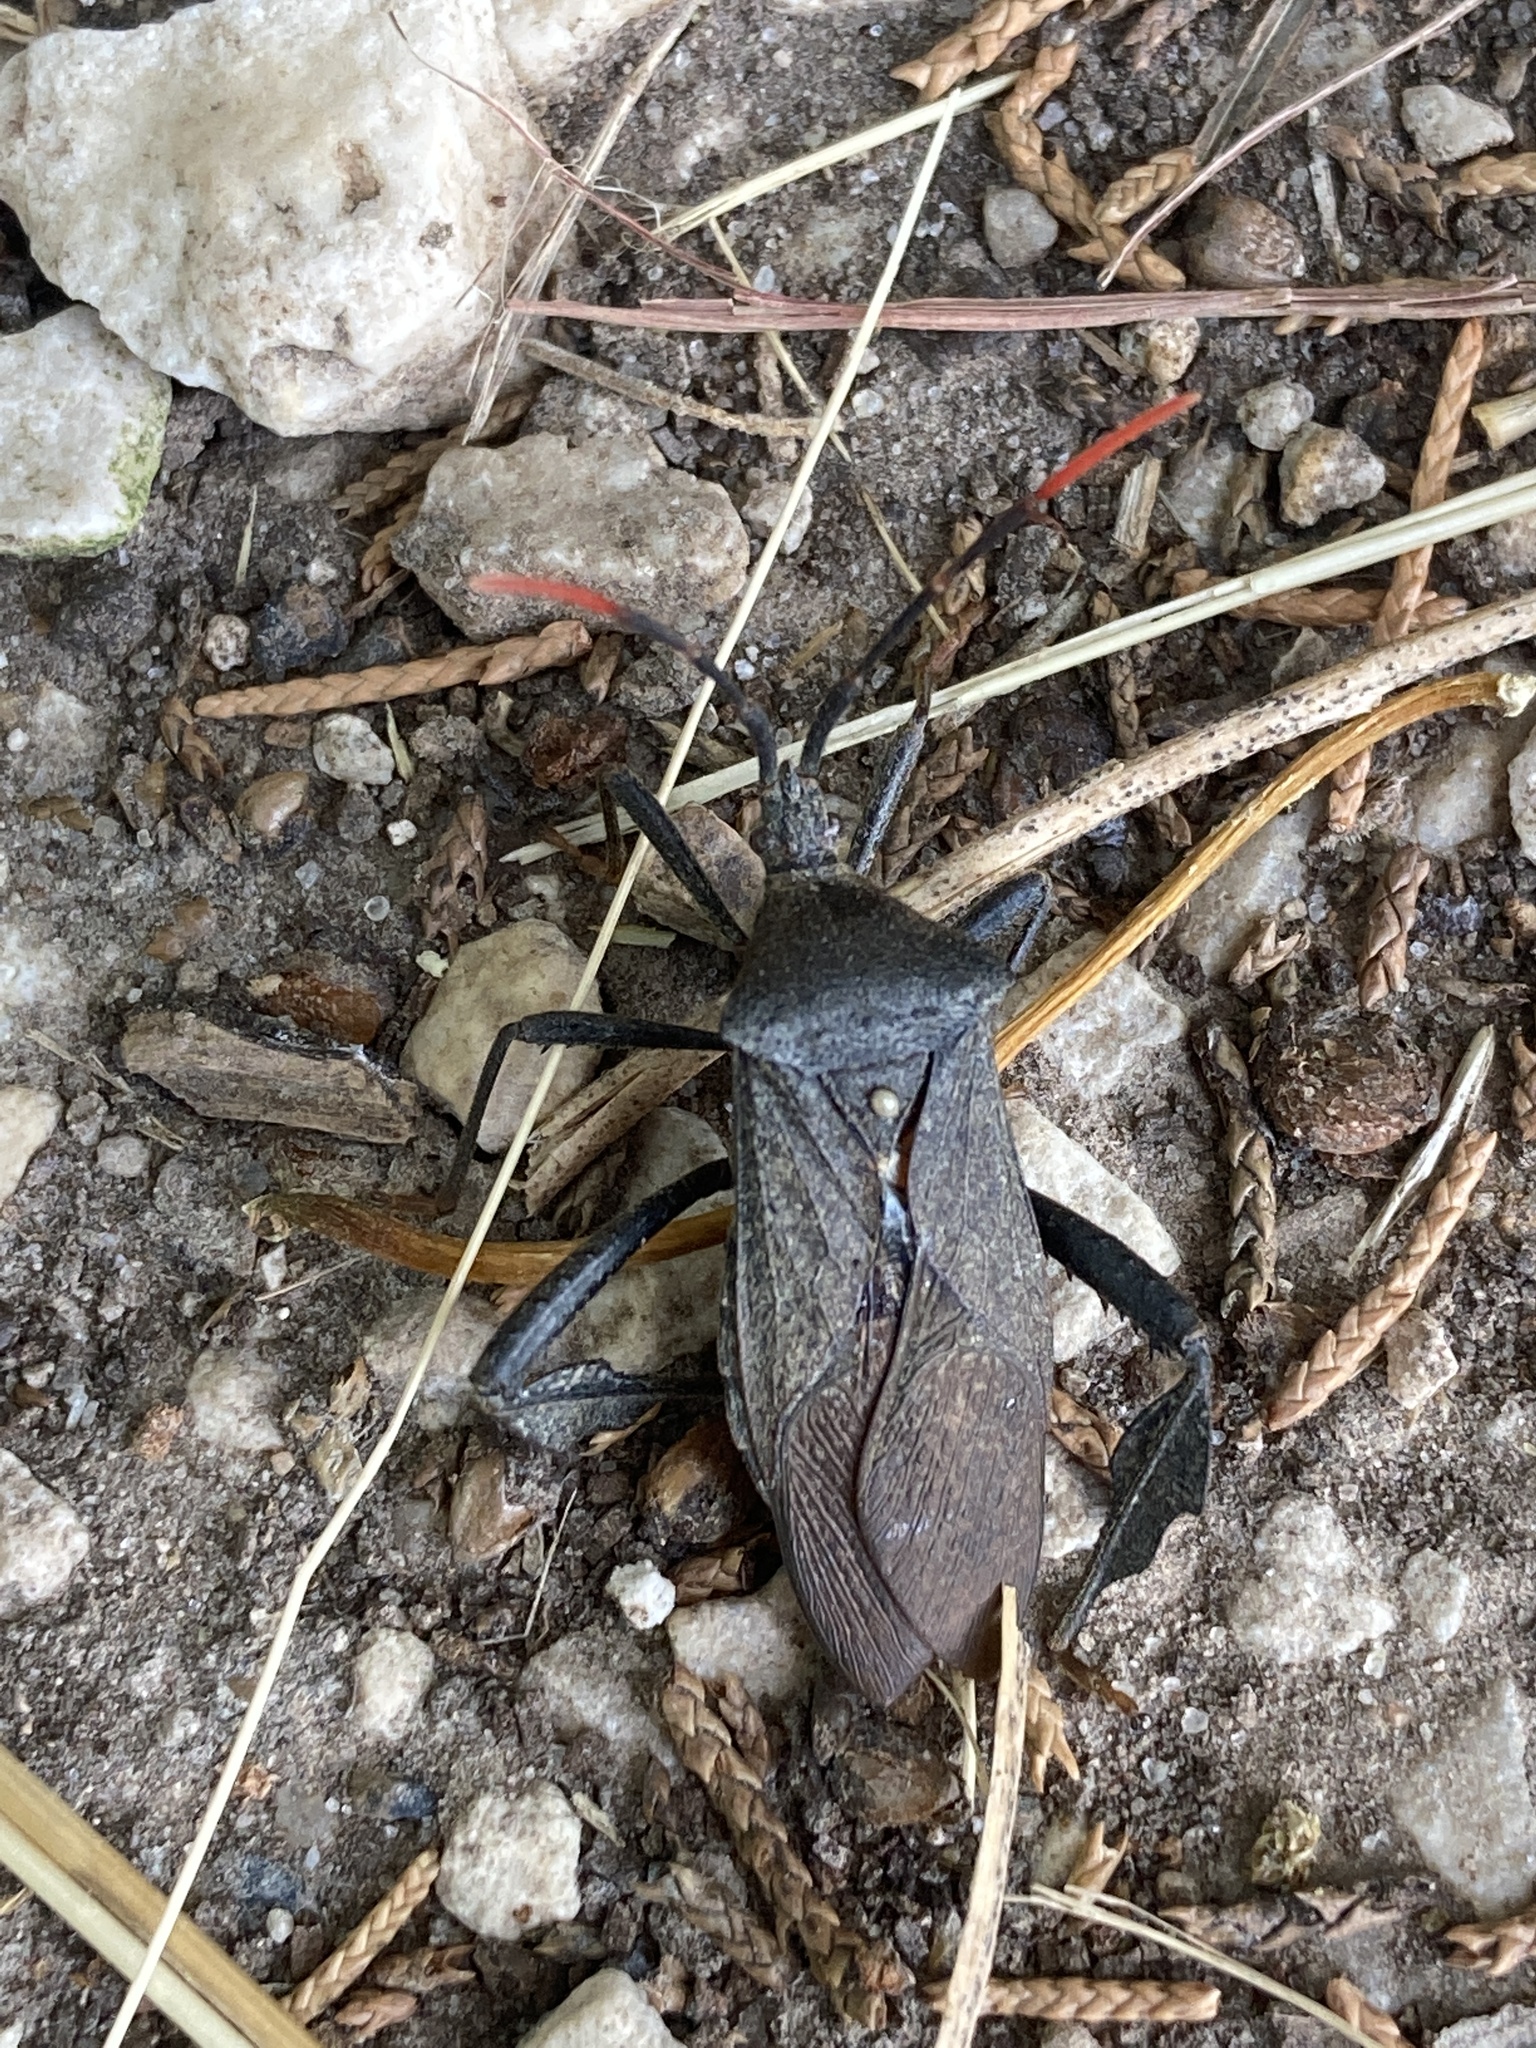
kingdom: Animalia
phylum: Arthropoda
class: Insecta
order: Hemiptera
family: Coreidae
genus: Acanthocephala
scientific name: Acanthocephala terminalis
